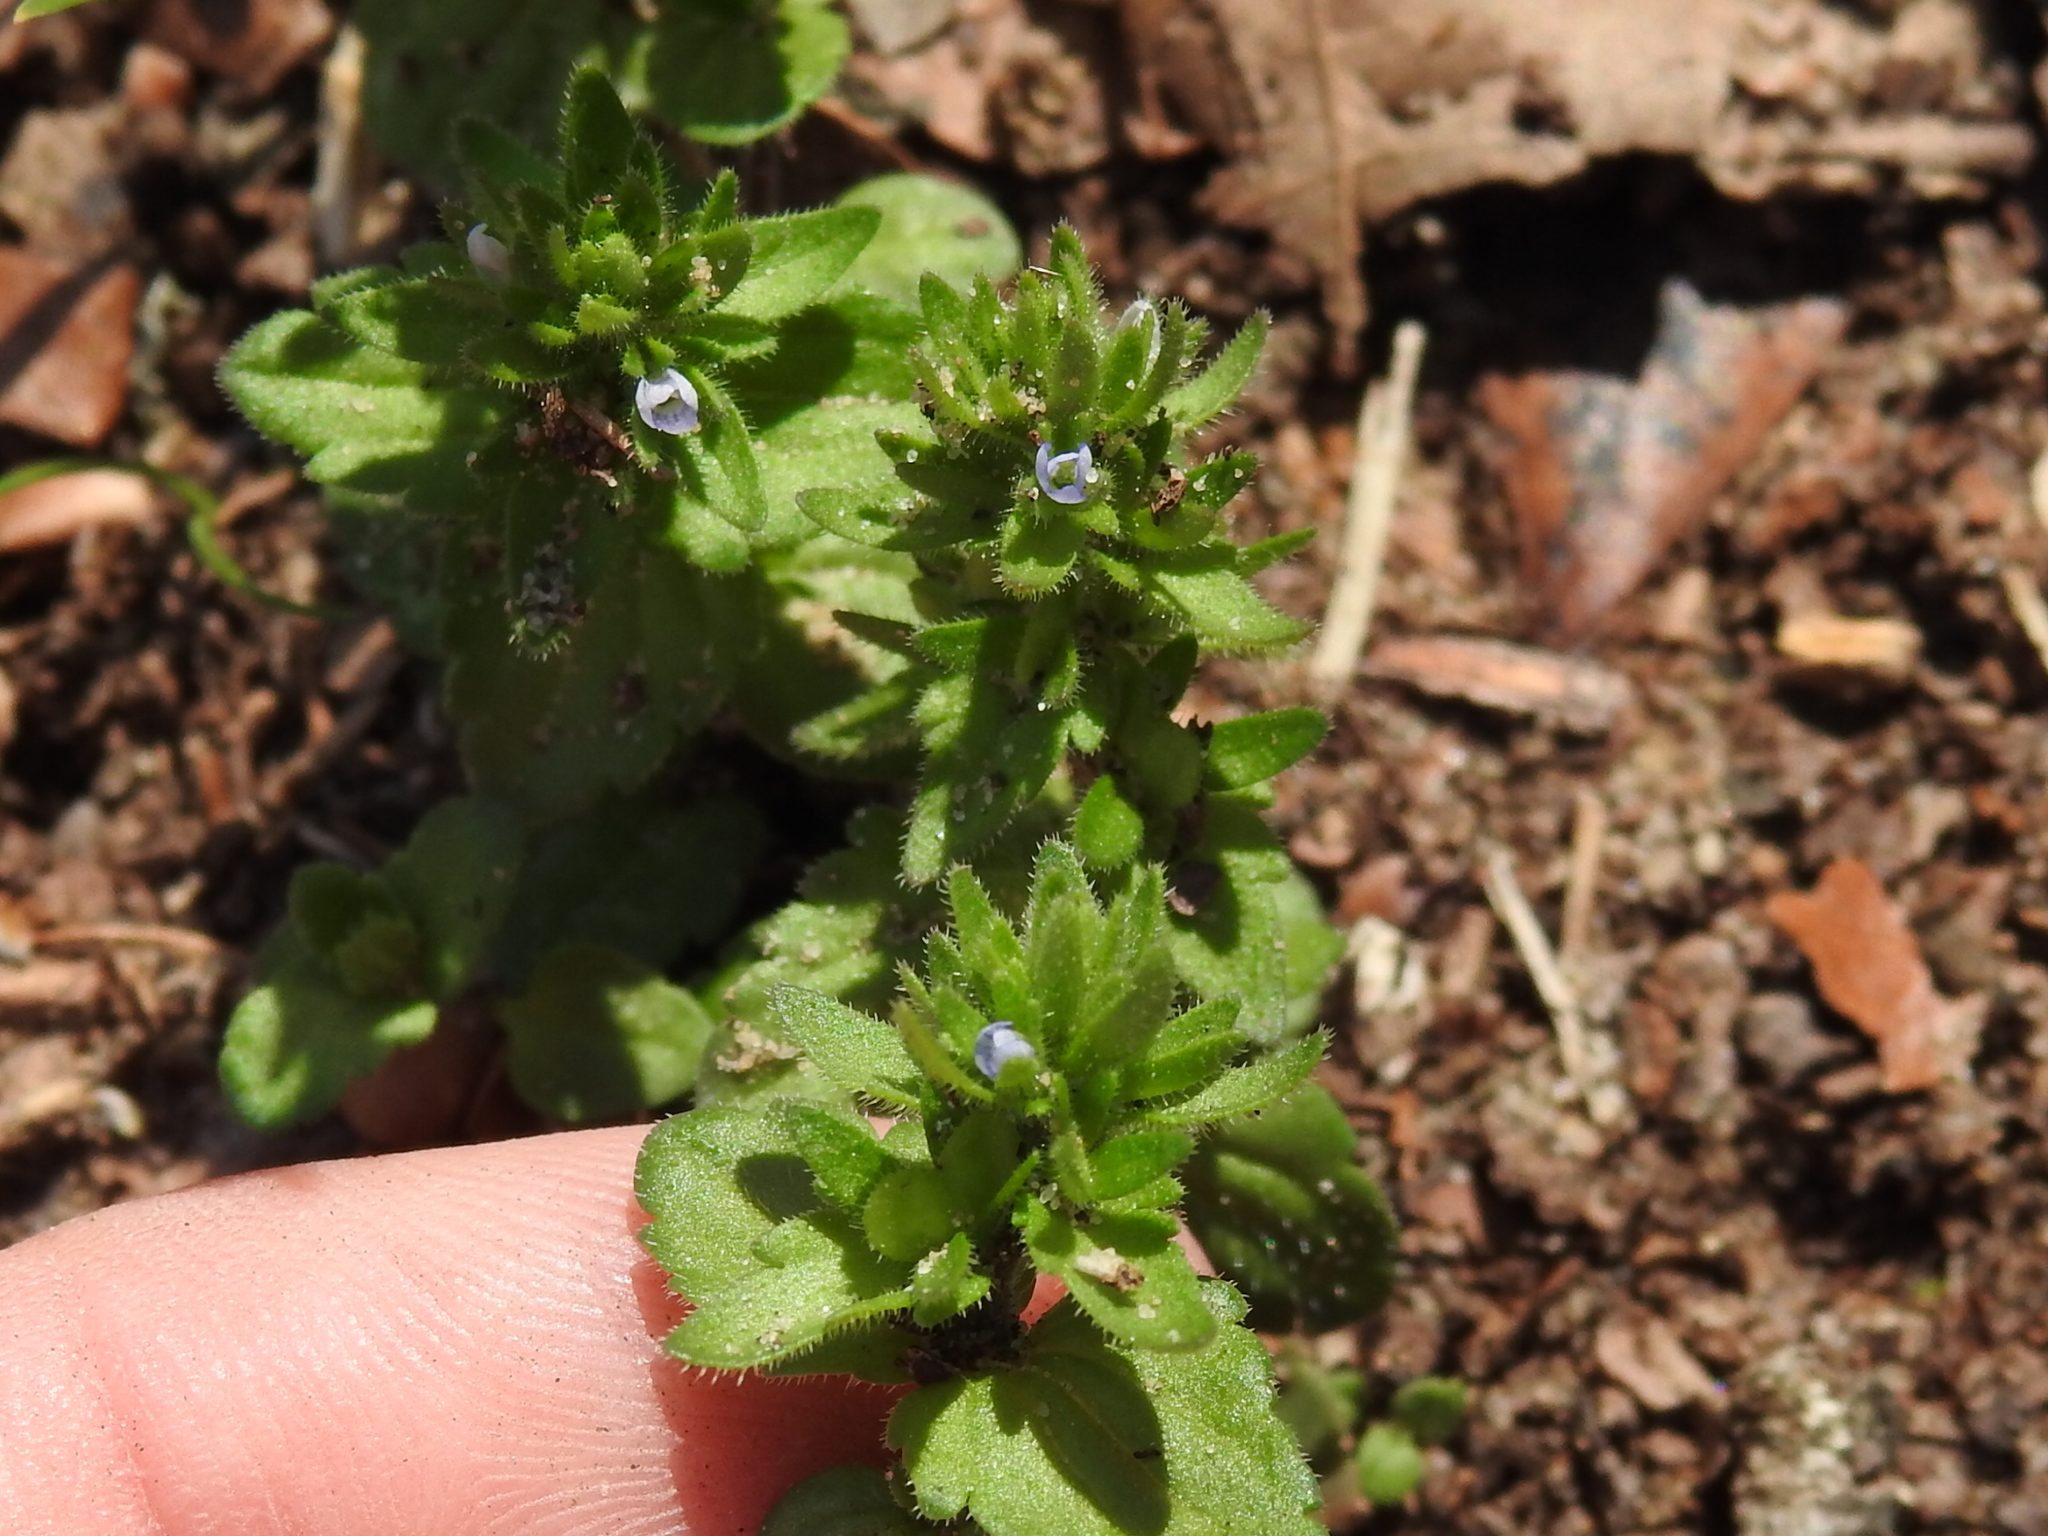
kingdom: Plantae
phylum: Tracheophyta
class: Magnoliopsida
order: Lamiales
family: Plantaginaceae
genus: Veronica
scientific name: Veronica arvensis
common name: Corn speedwell
